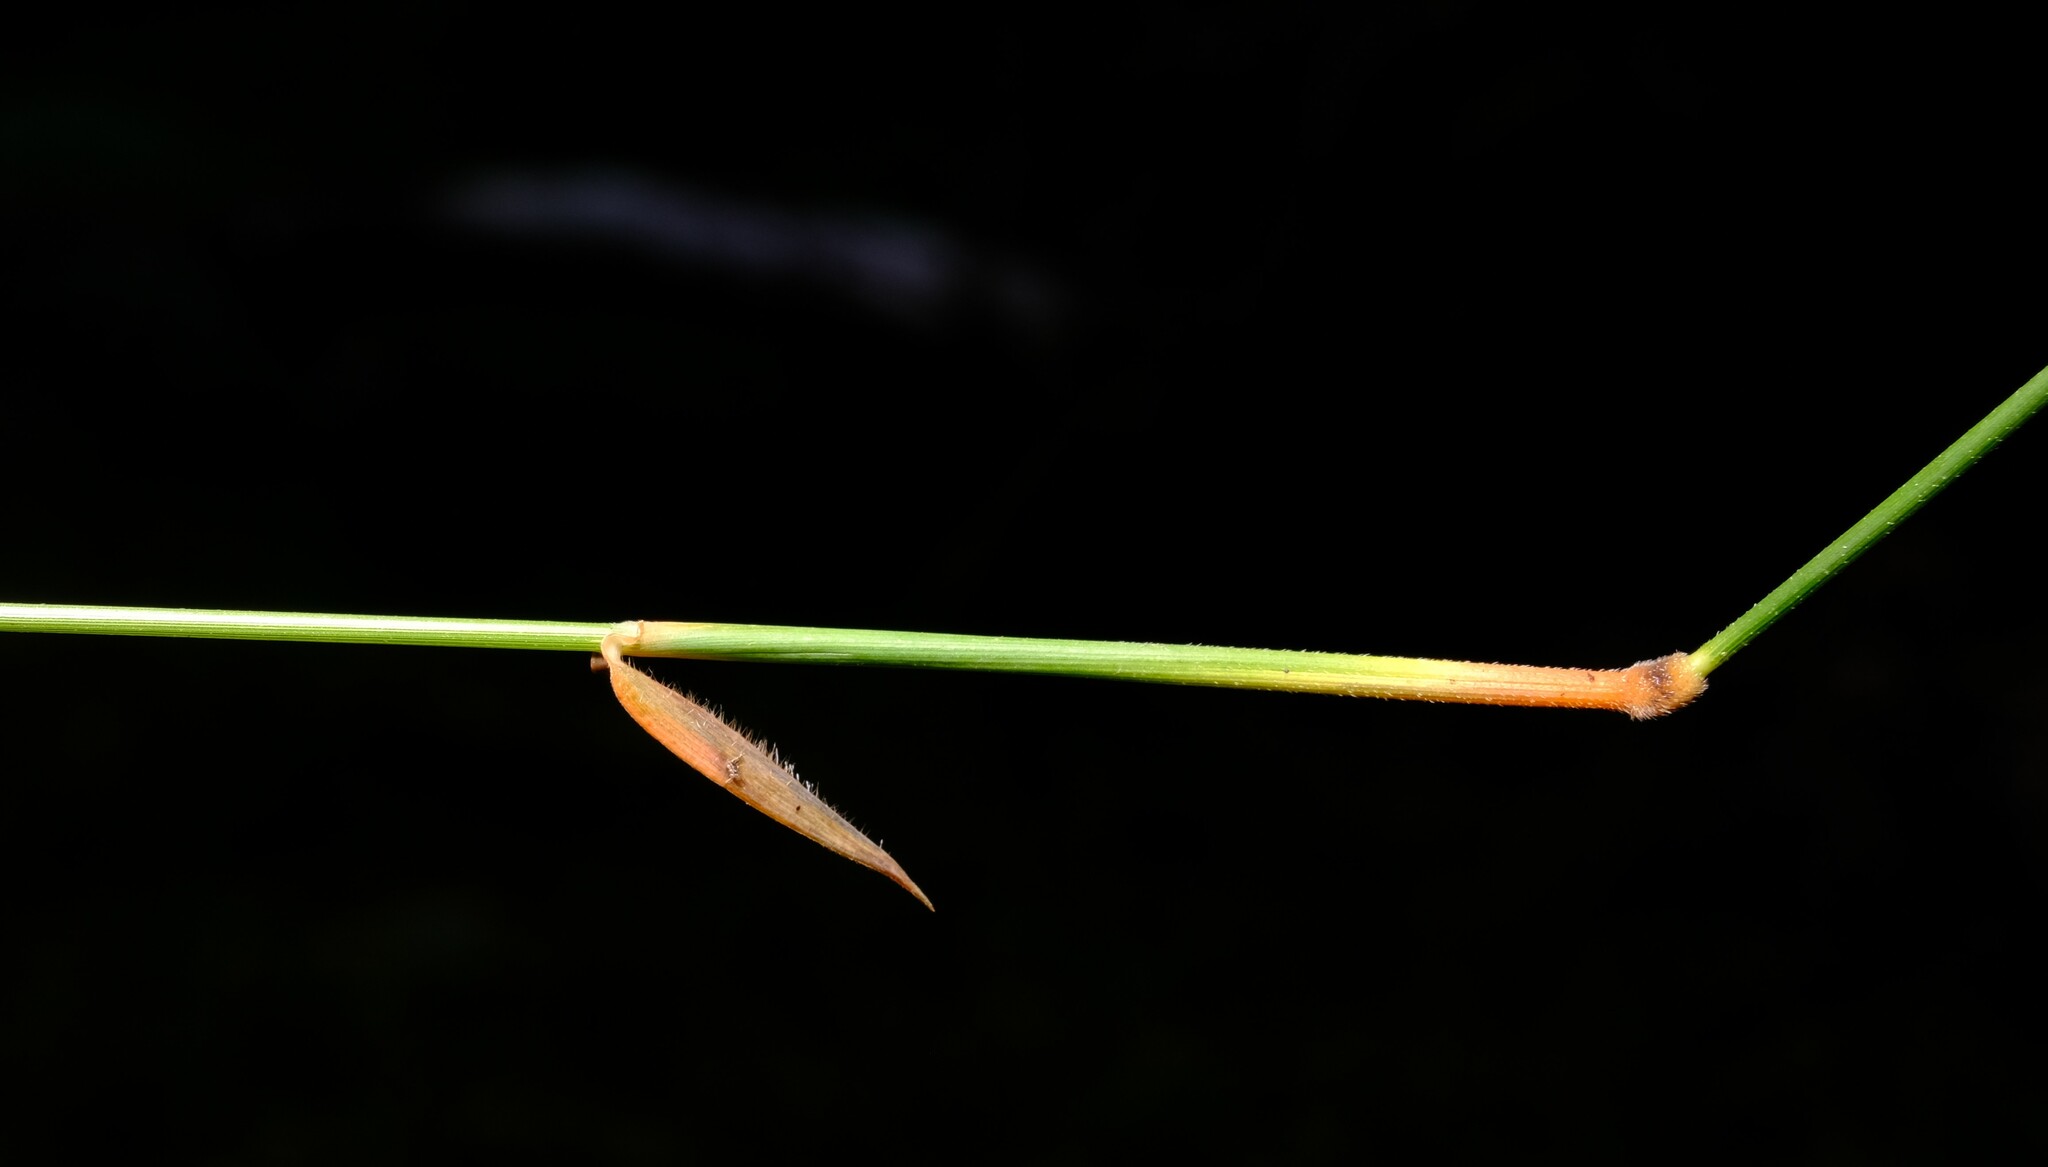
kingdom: Plantae
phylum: Tracheophyta
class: Liliopsida
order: Poales
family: Poaceae
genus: Echinopogon
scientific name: Echinopogon ovatus
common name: Hedgehog-grass
